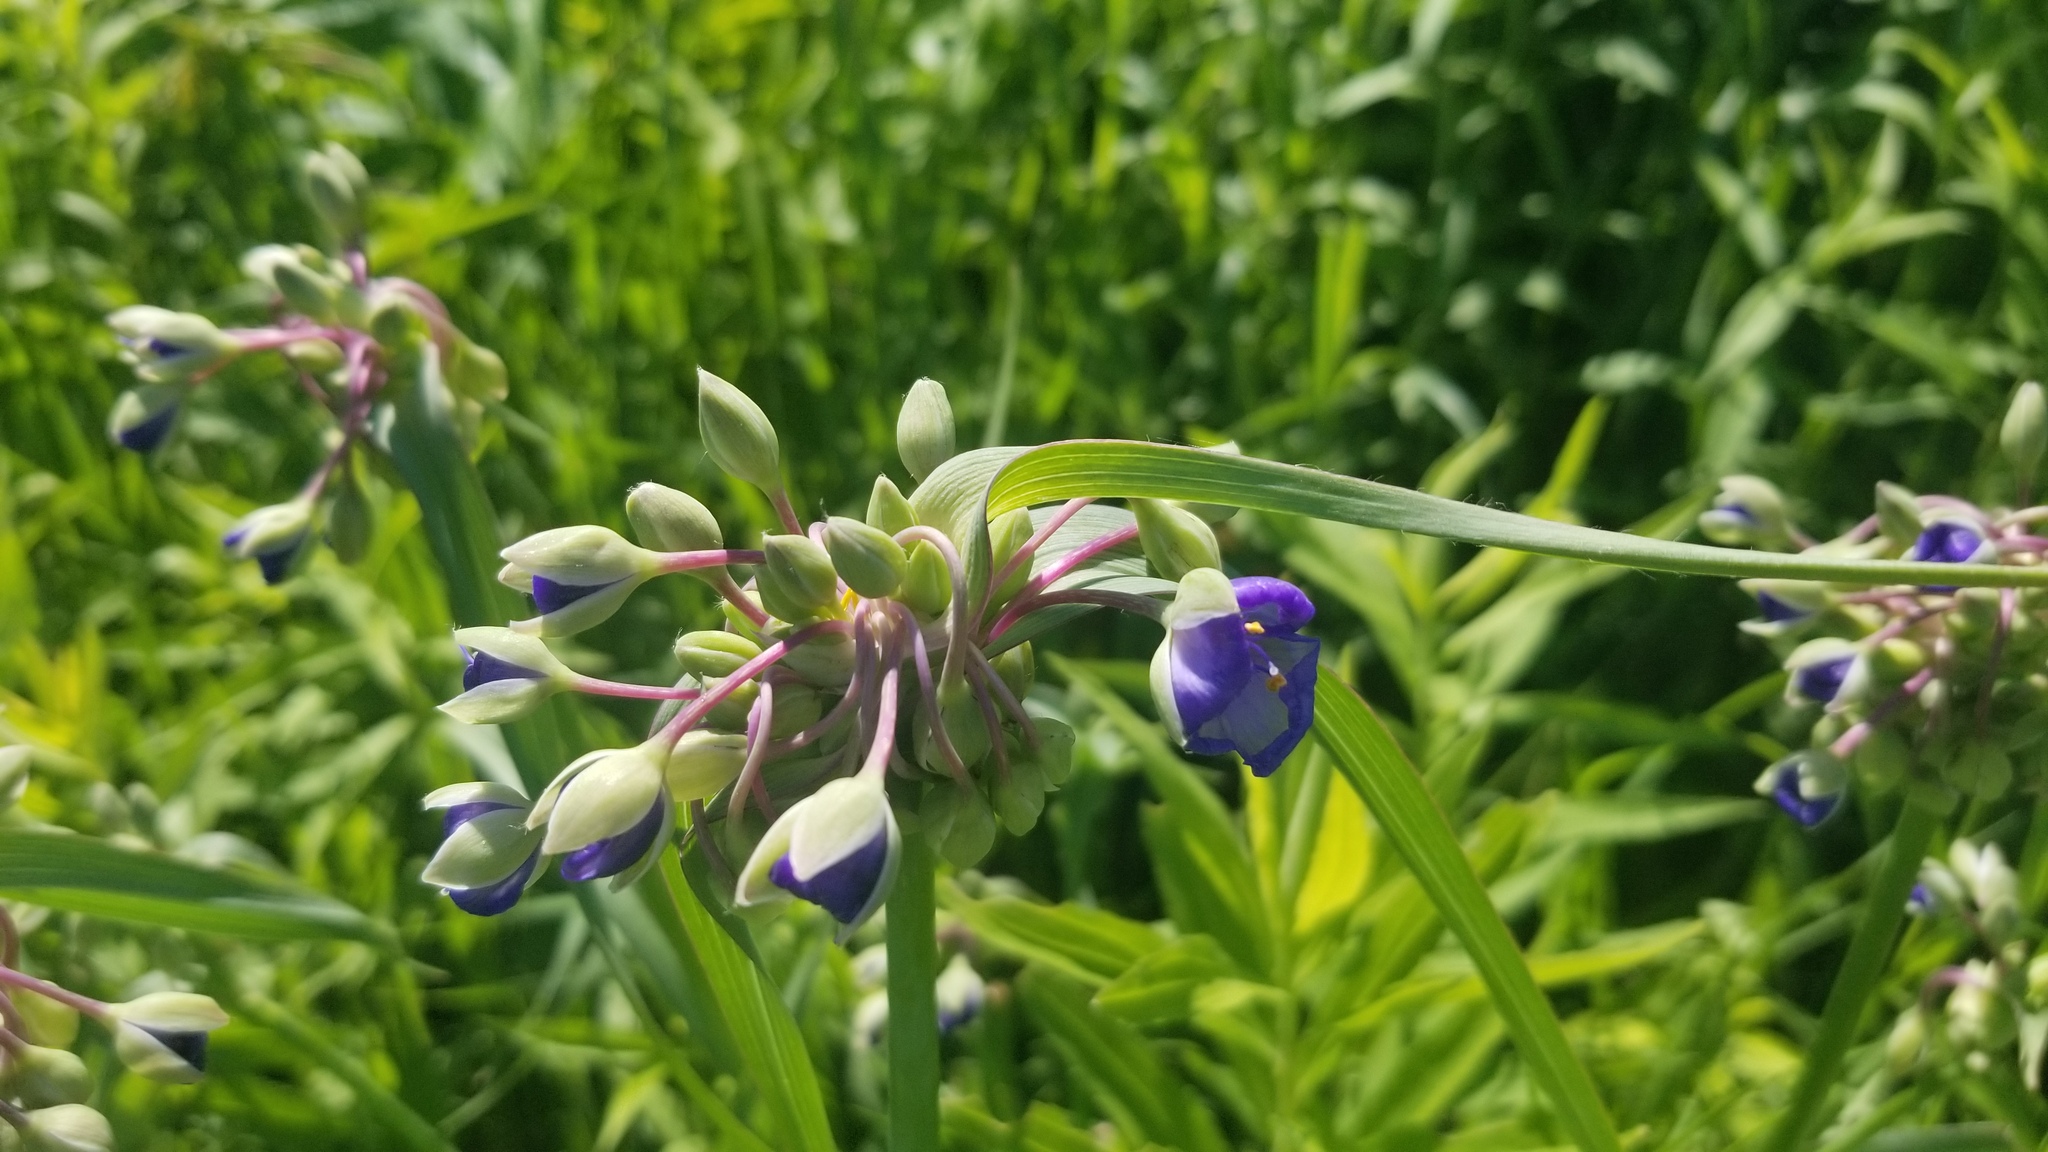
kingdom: Plantae
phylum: Tracheophyta
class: Liliopsida
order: Commelinales
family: Commelinaceae
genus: Tradescantia
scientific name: Tradescantia ohiensis
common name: Ohio spiderwort
